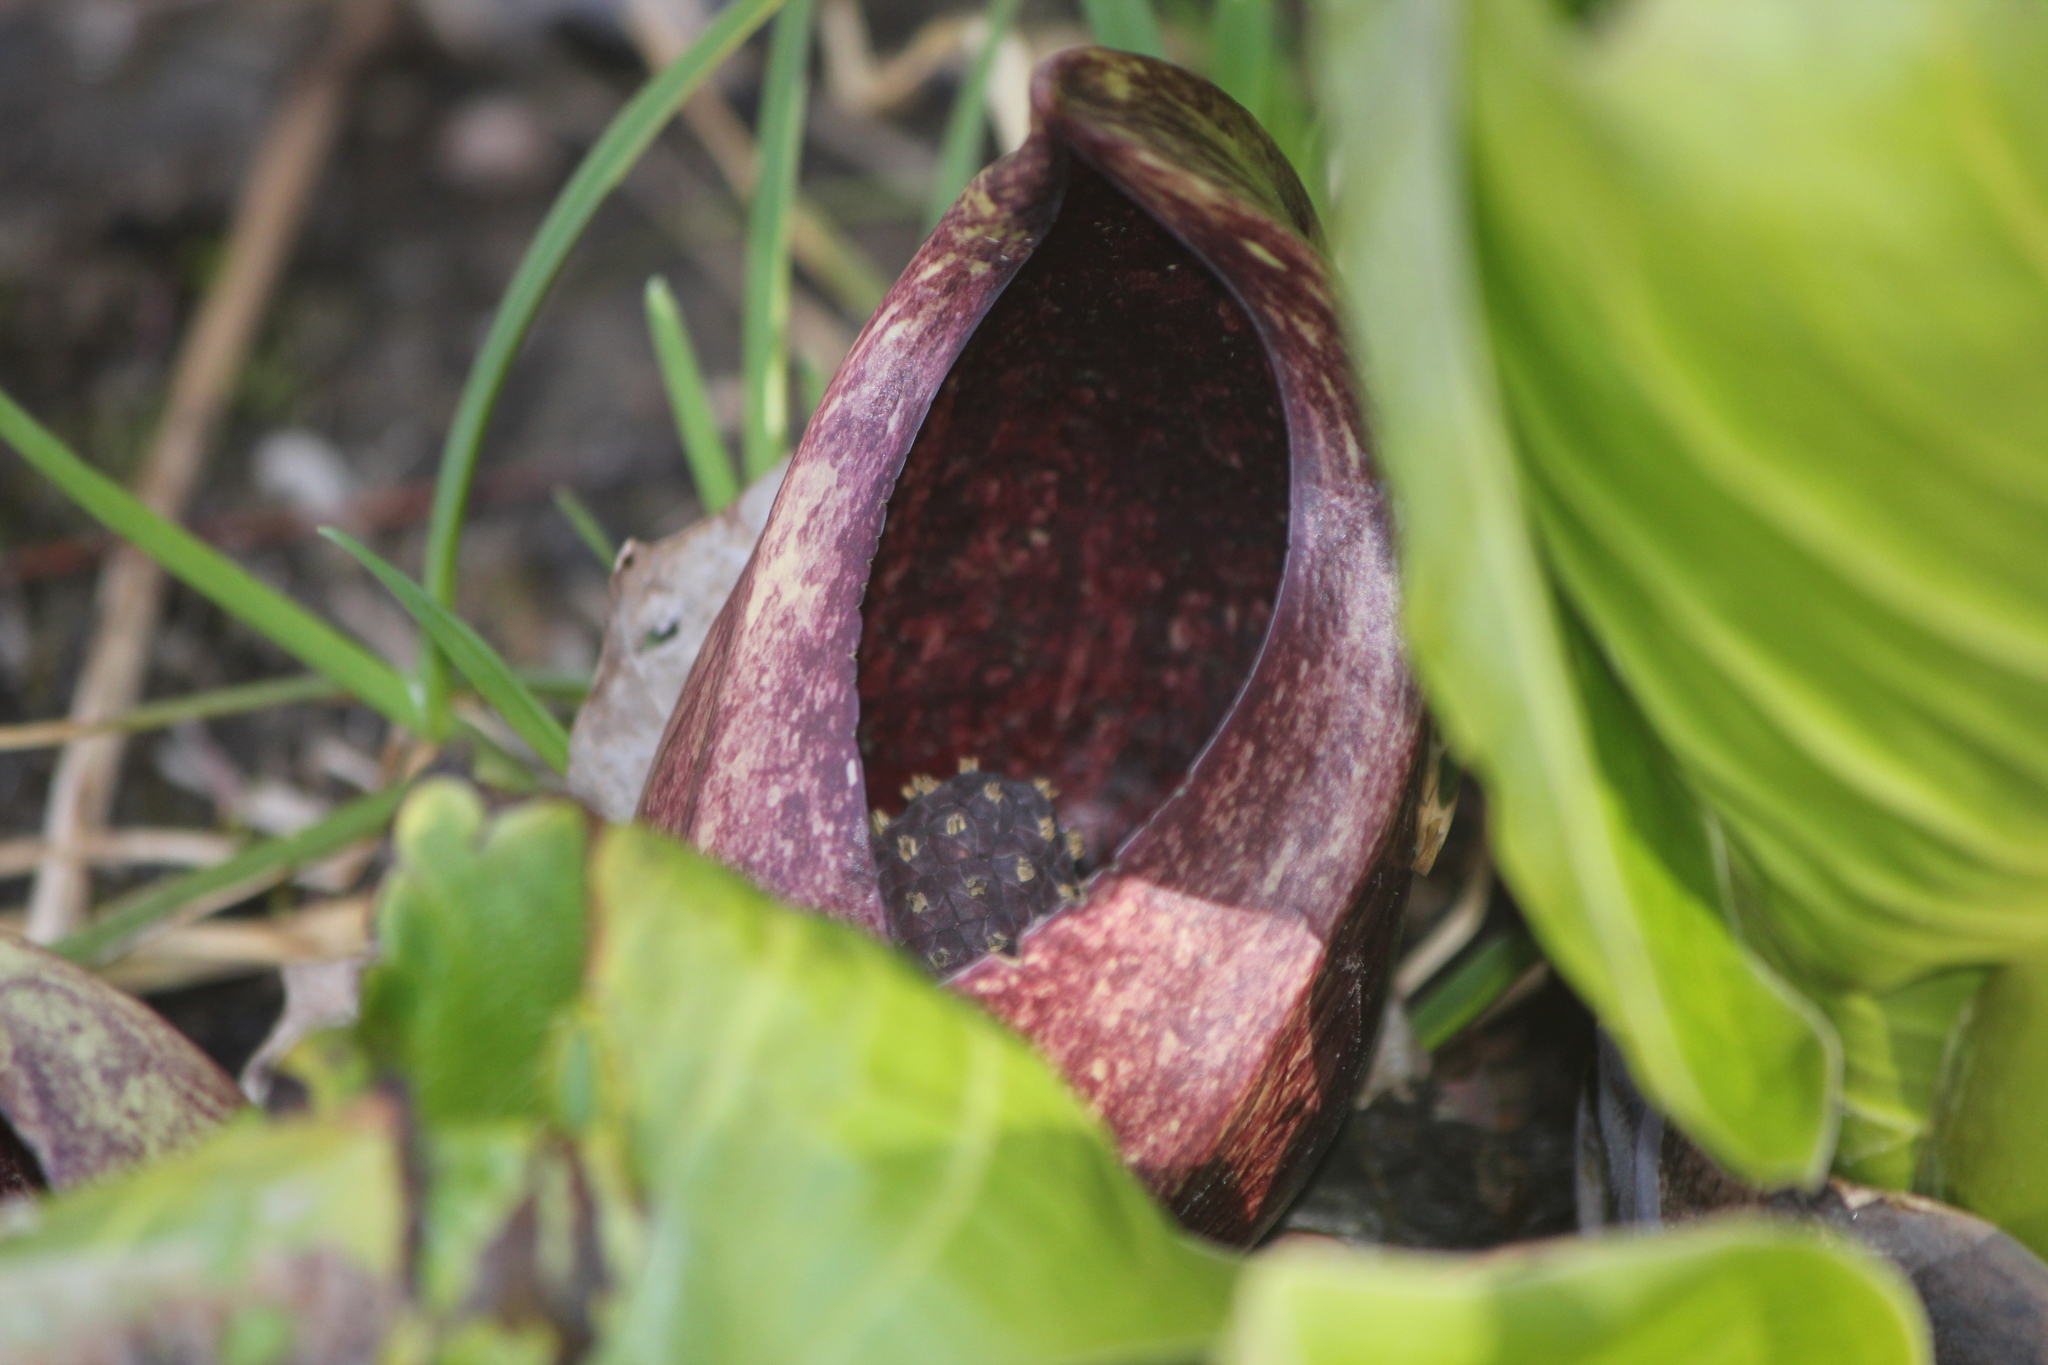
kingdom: Plantae
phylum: Tracheophyta
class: Liliopsida
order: Alismatales
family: Araceae
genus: Symplocarpus
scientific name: Symplocarpus foetidus
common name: Eastern skunk cabbage
